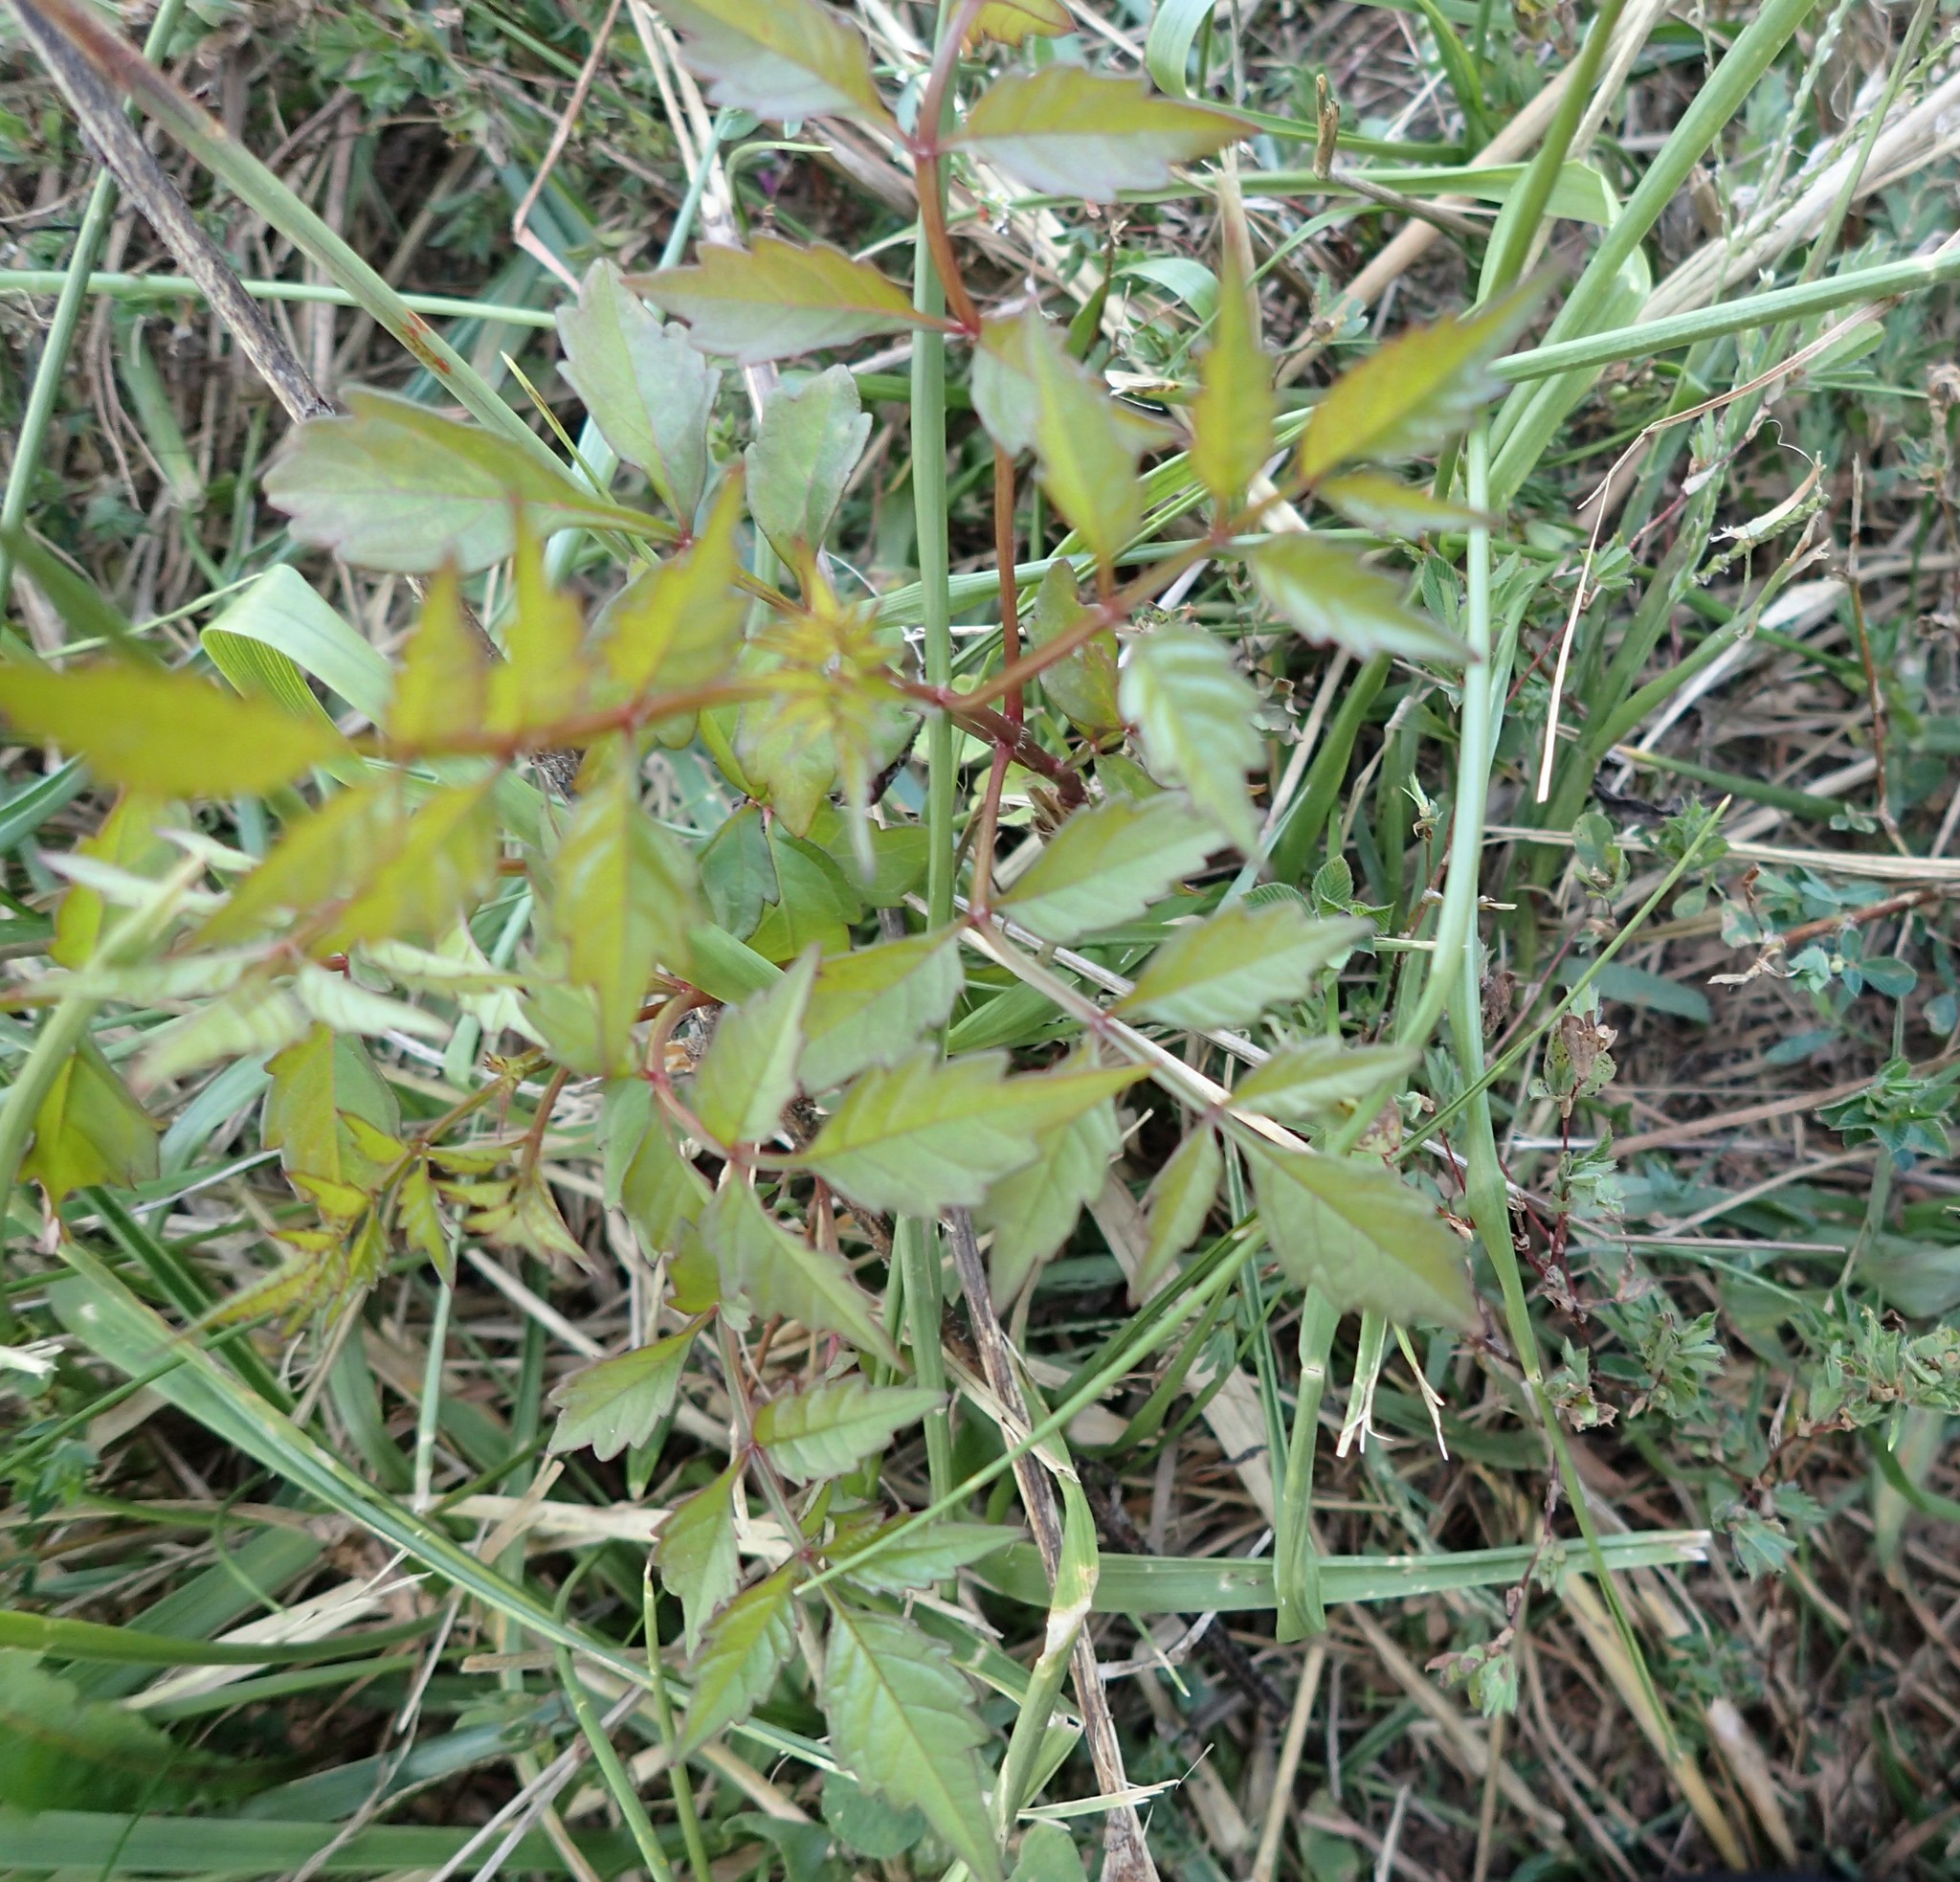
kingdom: Plantae
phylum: Tracheophyta
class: Magnoliopsida
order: Lamiales
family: Bignoniaceae
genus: Campsis
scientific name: Campsis radicans
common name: Trumpet-creeper
